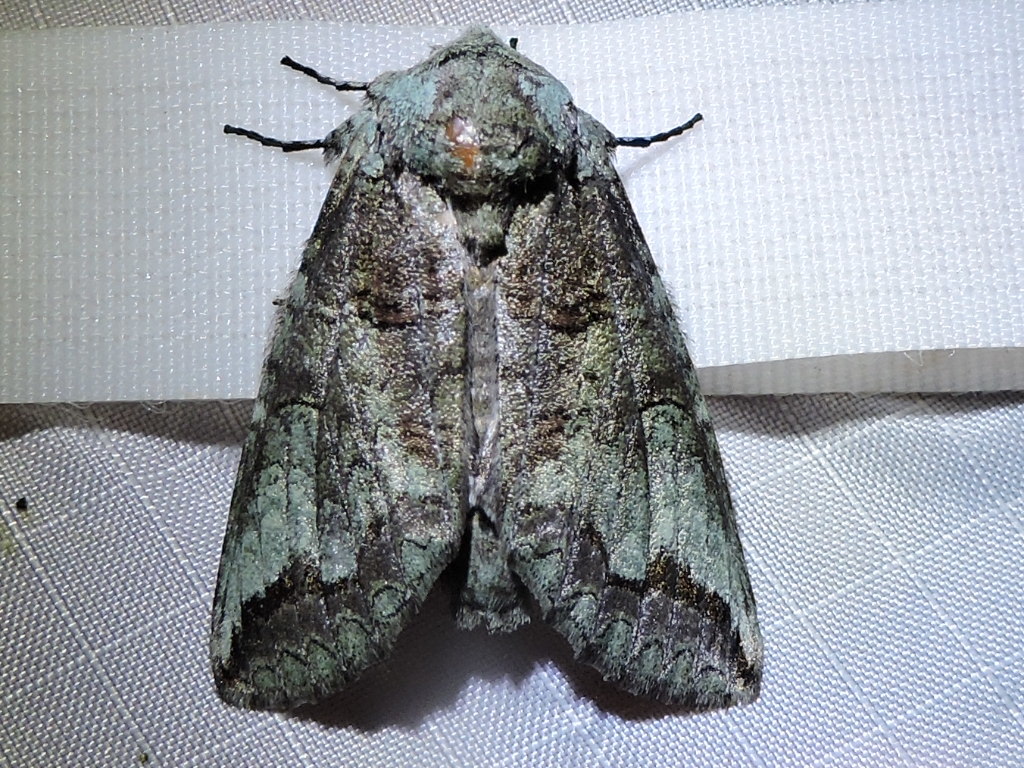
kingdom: Animalia
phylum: Arthropoda
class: Insecta
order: Lepidoptera
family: Notodontidae
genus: Heterocampa
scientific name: Heterocampa astartoides
